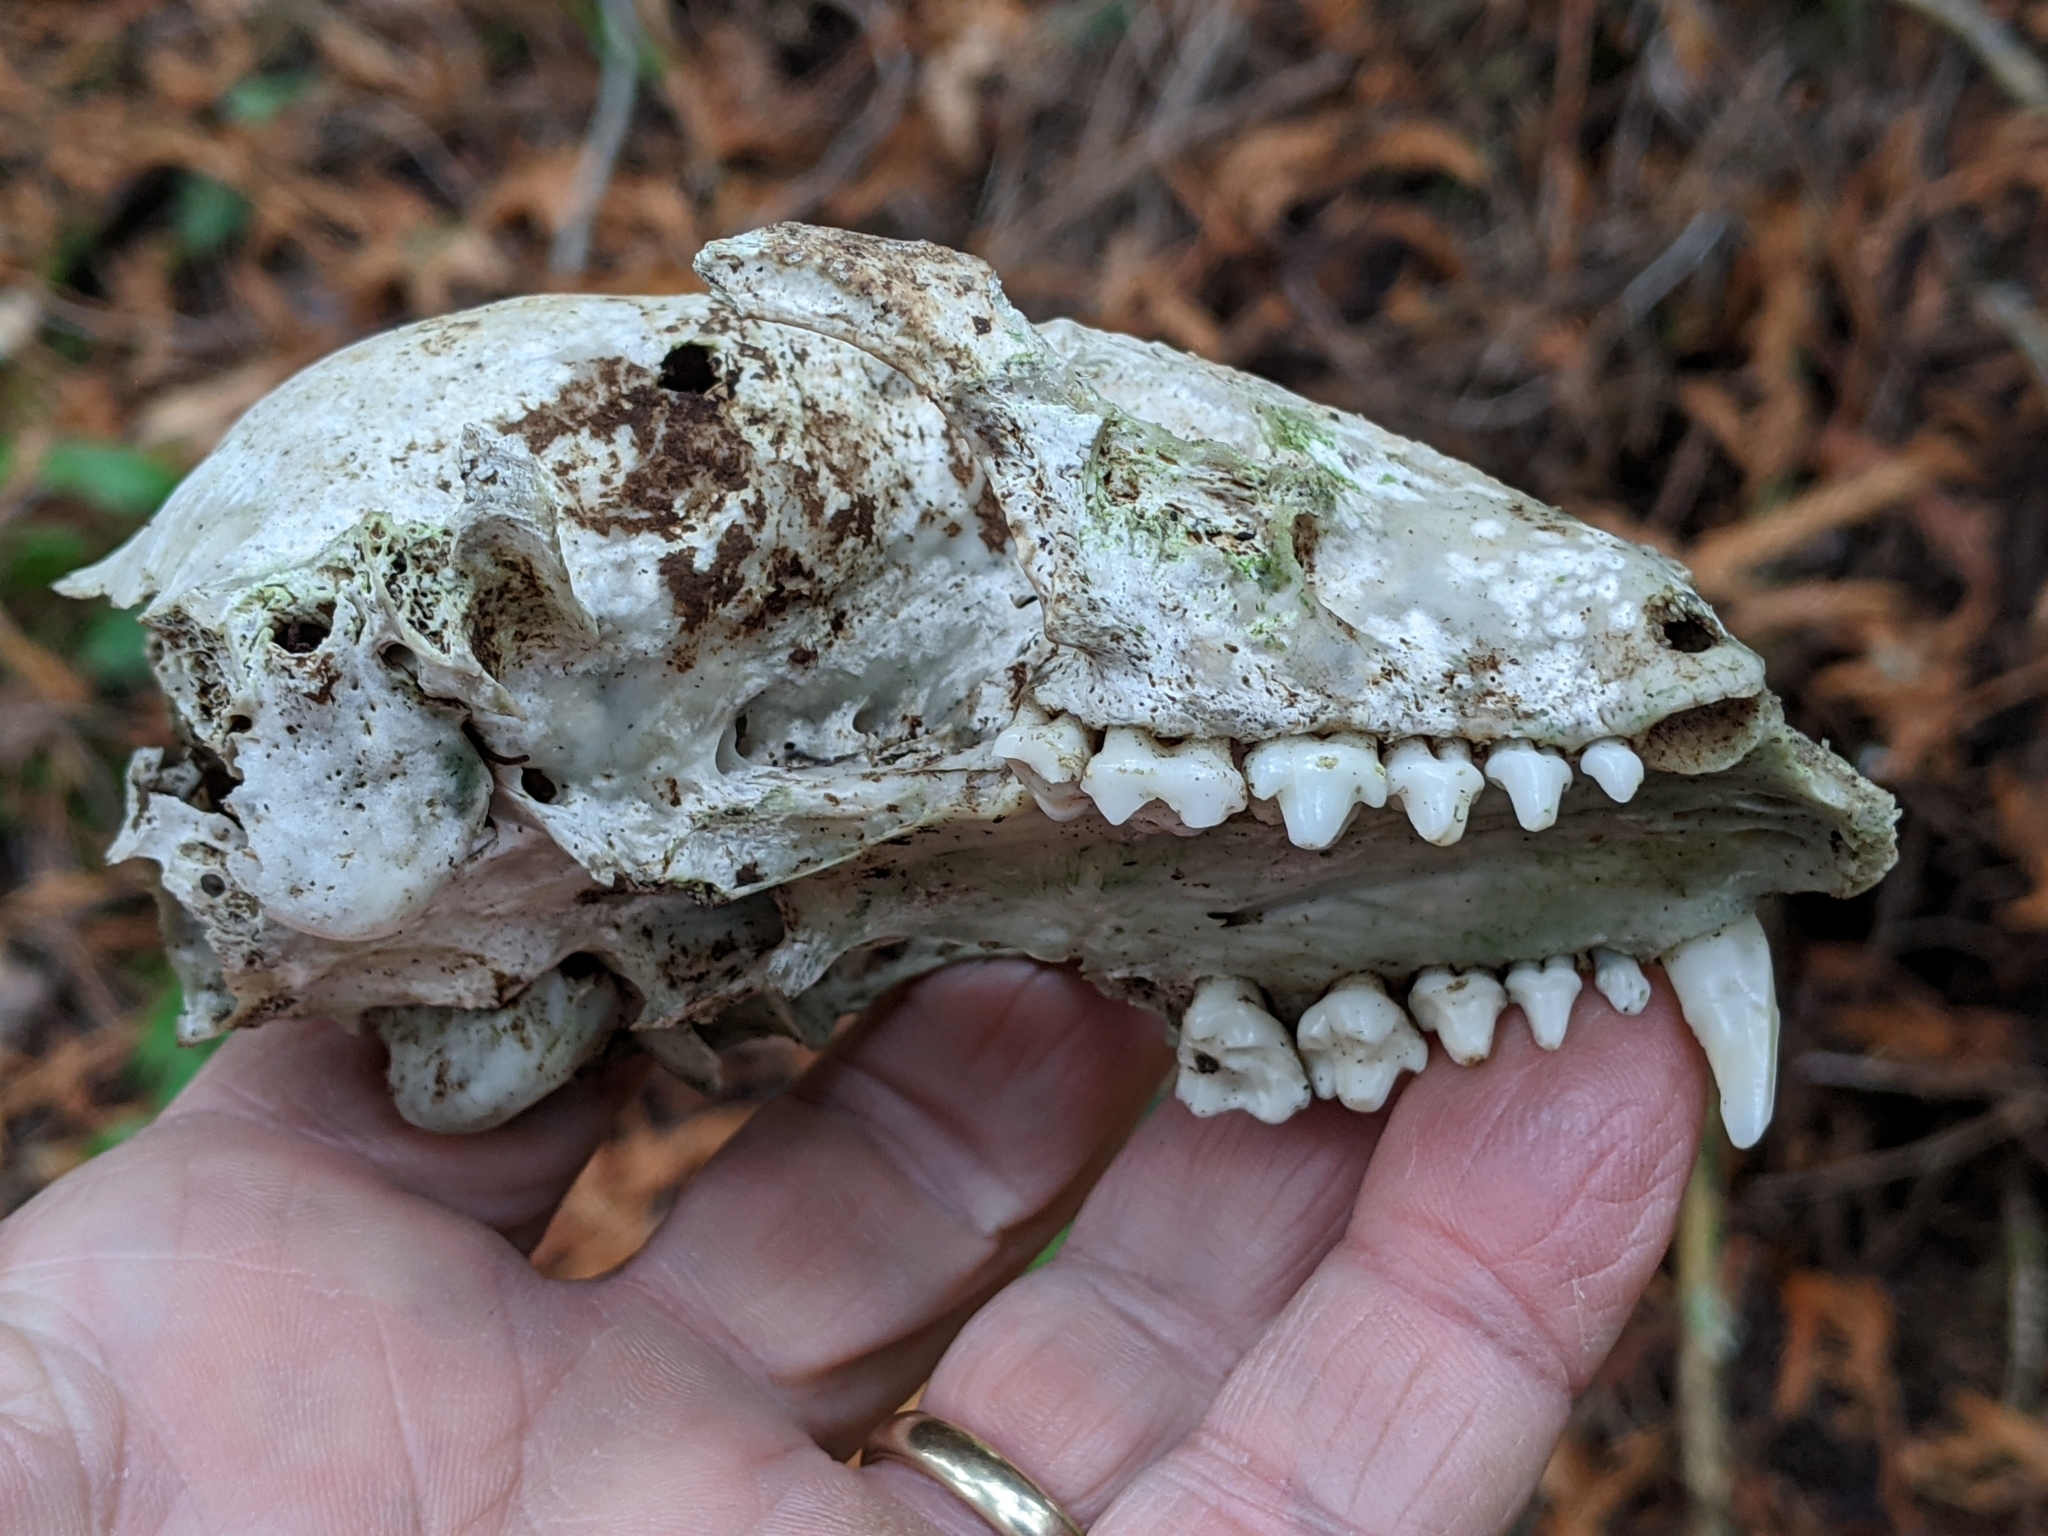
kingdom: Animalia
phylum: Chordata
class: Mammalia
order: Carnivora
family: Procyonidae
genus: Procyon
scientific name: Procyon lotor
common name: Raccoon
